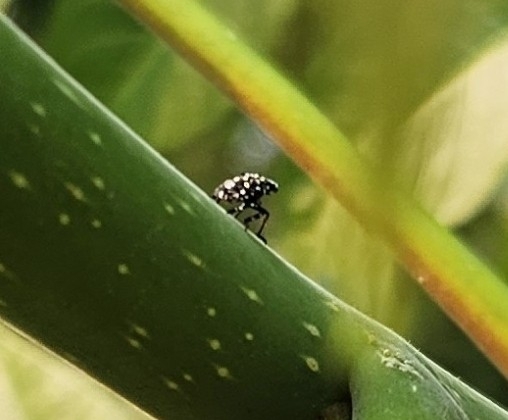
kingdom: Animalia
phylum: Arthropoda
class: Insecta
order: Hemiptera
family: Fulgoridae
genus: Lycorma
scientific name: Lycorma delicatula
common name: Spotted lanternfly
